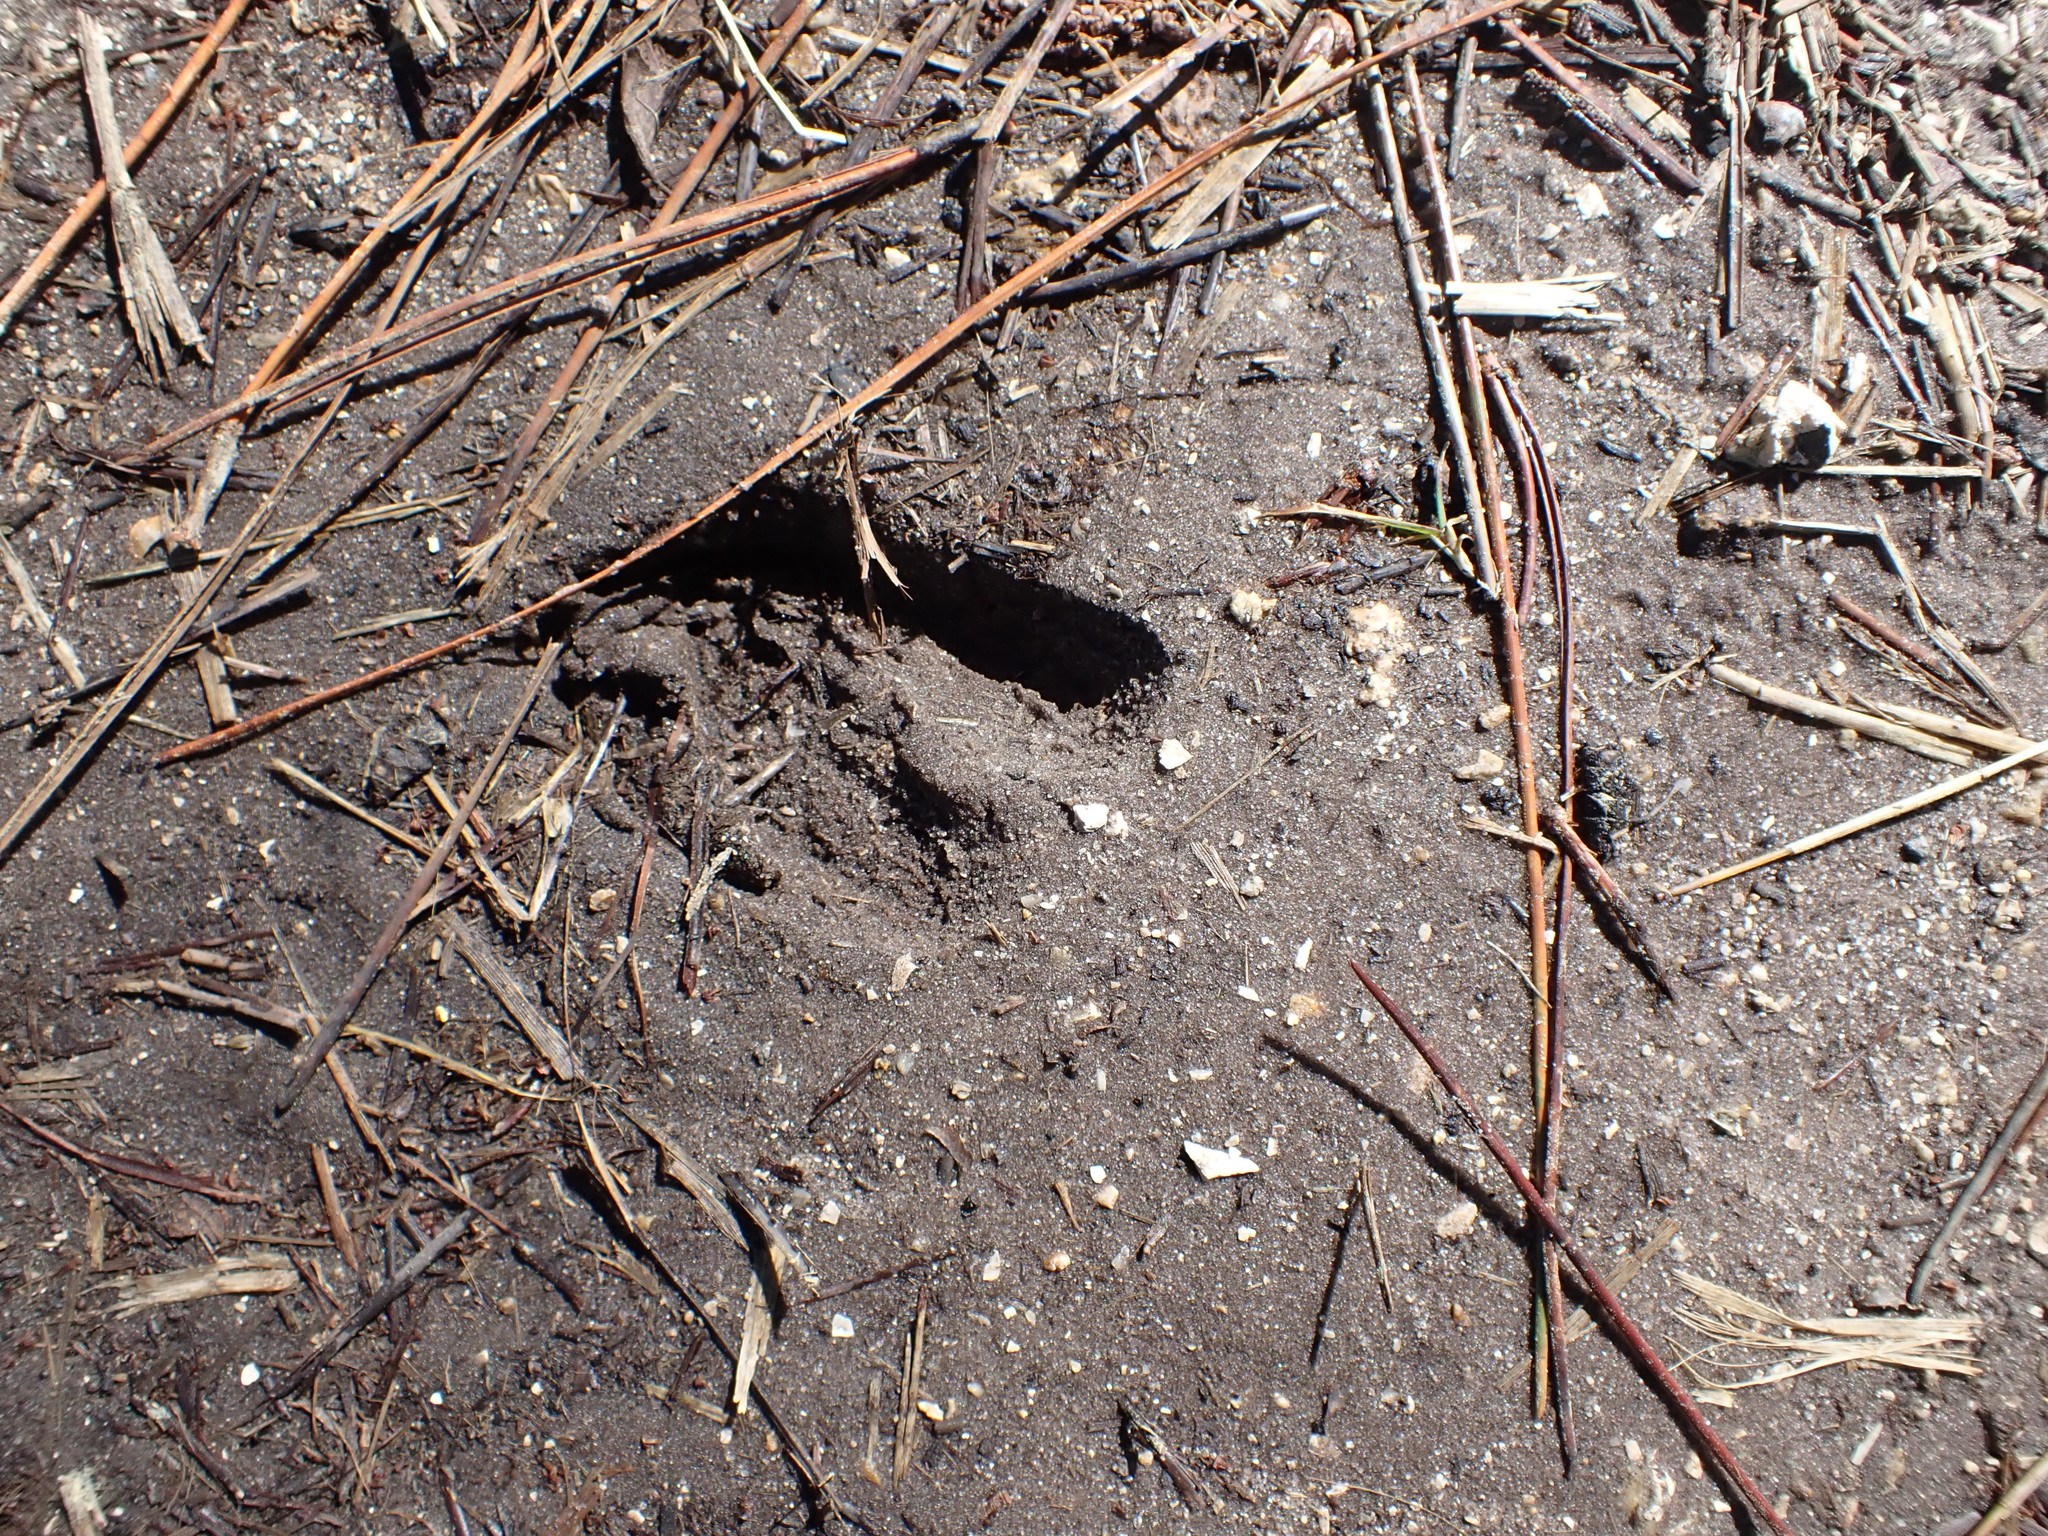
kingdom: Animalia
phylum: Chordata
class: Mammalia
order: Artiodactyla
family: Cervidae
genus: Odocoileus
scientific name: Odocoileus virginianus
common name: White-tailed deer
